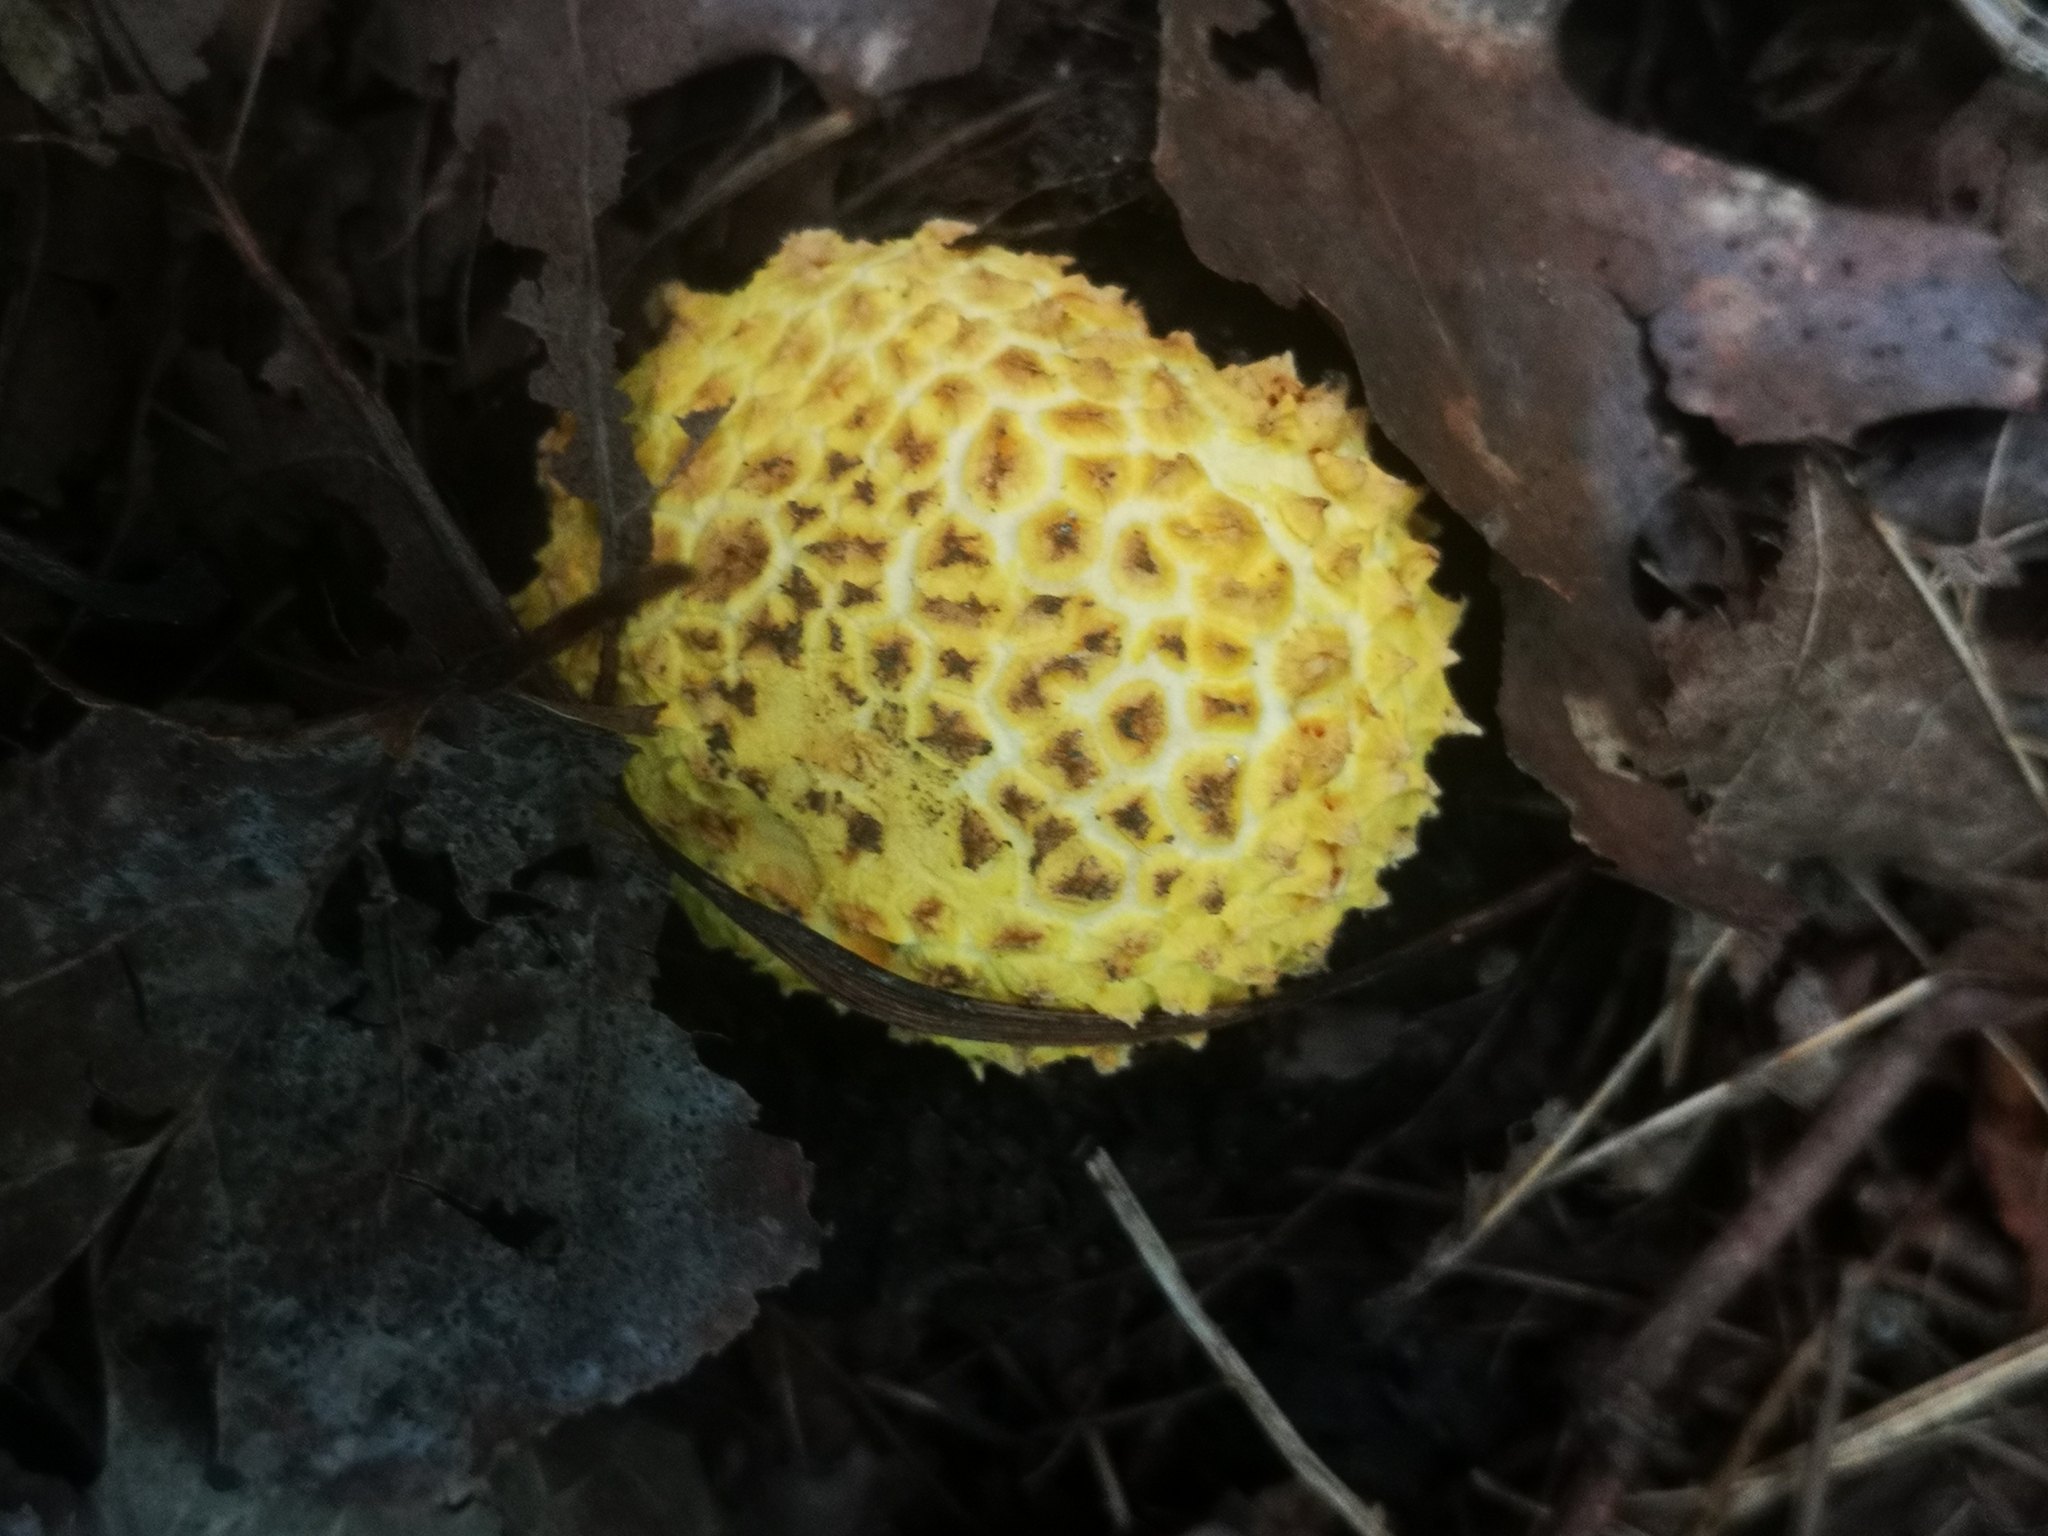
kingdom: Fungi
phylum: Basidiomycota
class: Agaricomycetes
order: Agaricales
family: Amanitaceae
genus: Amanita
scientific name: Amanita muscaria
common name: Fly agaric
